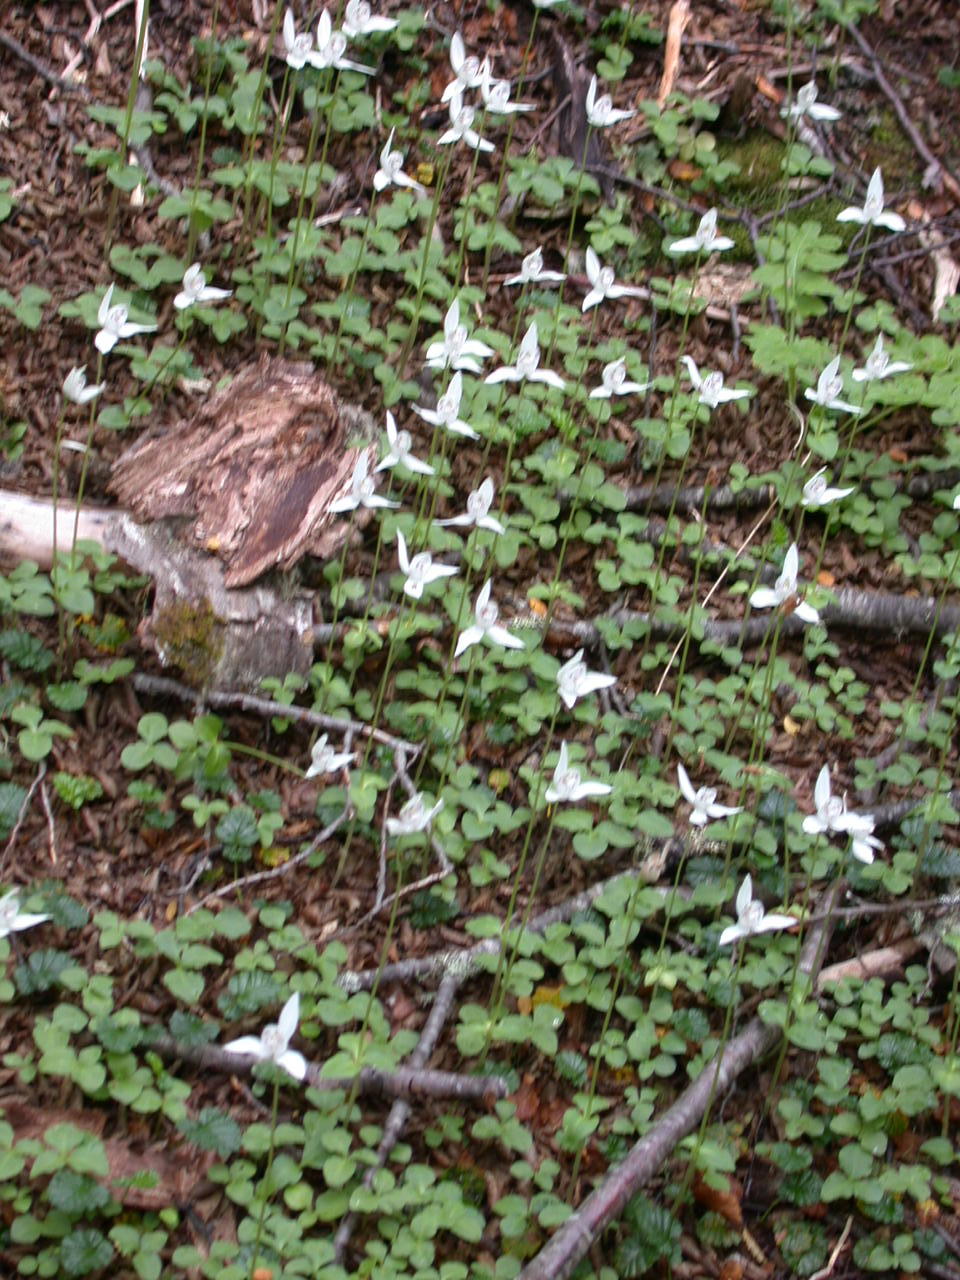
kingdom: Plantae
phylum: Tracheophyta
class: Liliopsida
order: Asparagales
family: Orchidaceae
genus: Codonorchis
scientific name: Codonorchis lessonii
